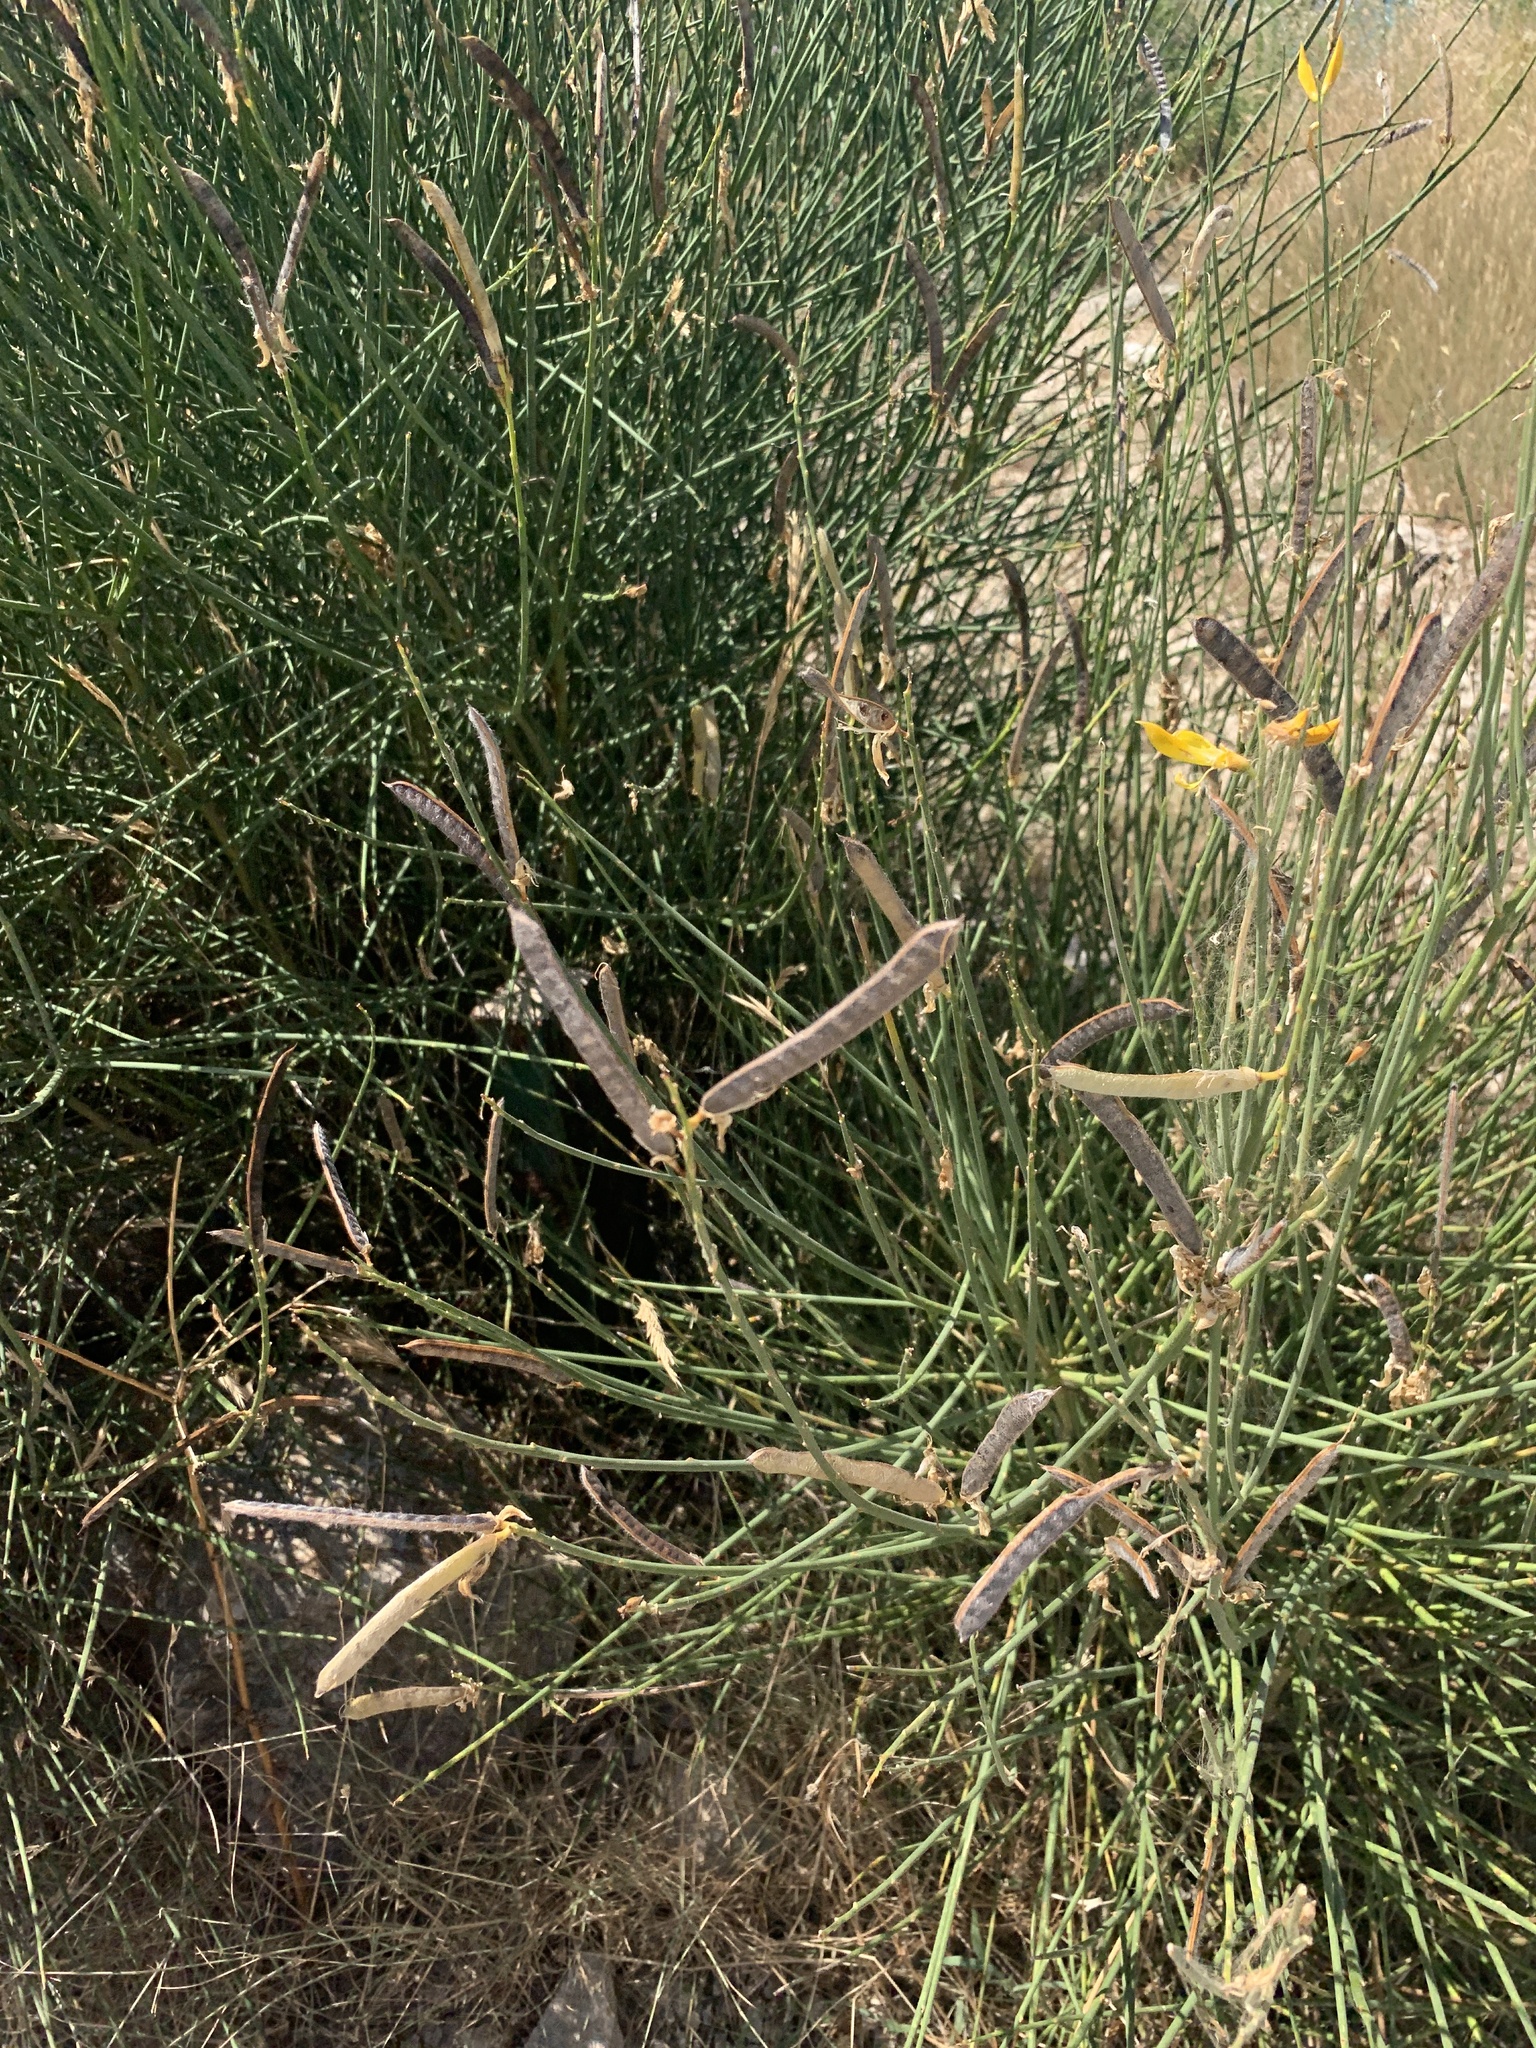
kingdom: Plantae
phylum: Tracheophyta
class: Magnoliopsida
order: Fabales
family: Fabaceae
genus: Spartium
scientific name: Spartium junceum
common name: Spanish broom
